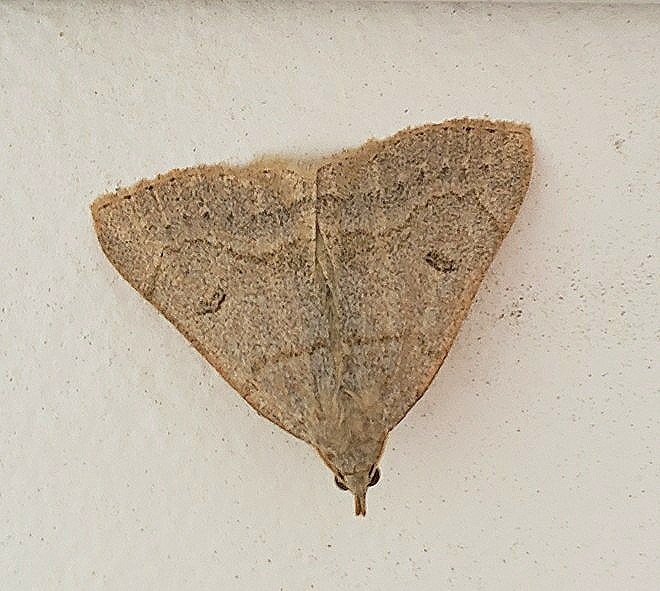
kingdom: Animalia
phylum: Arthropoda
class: Insecta
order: Lepidoptera
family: Erebidae
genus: Macrochilo
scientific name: Macrochilo morbidalis
